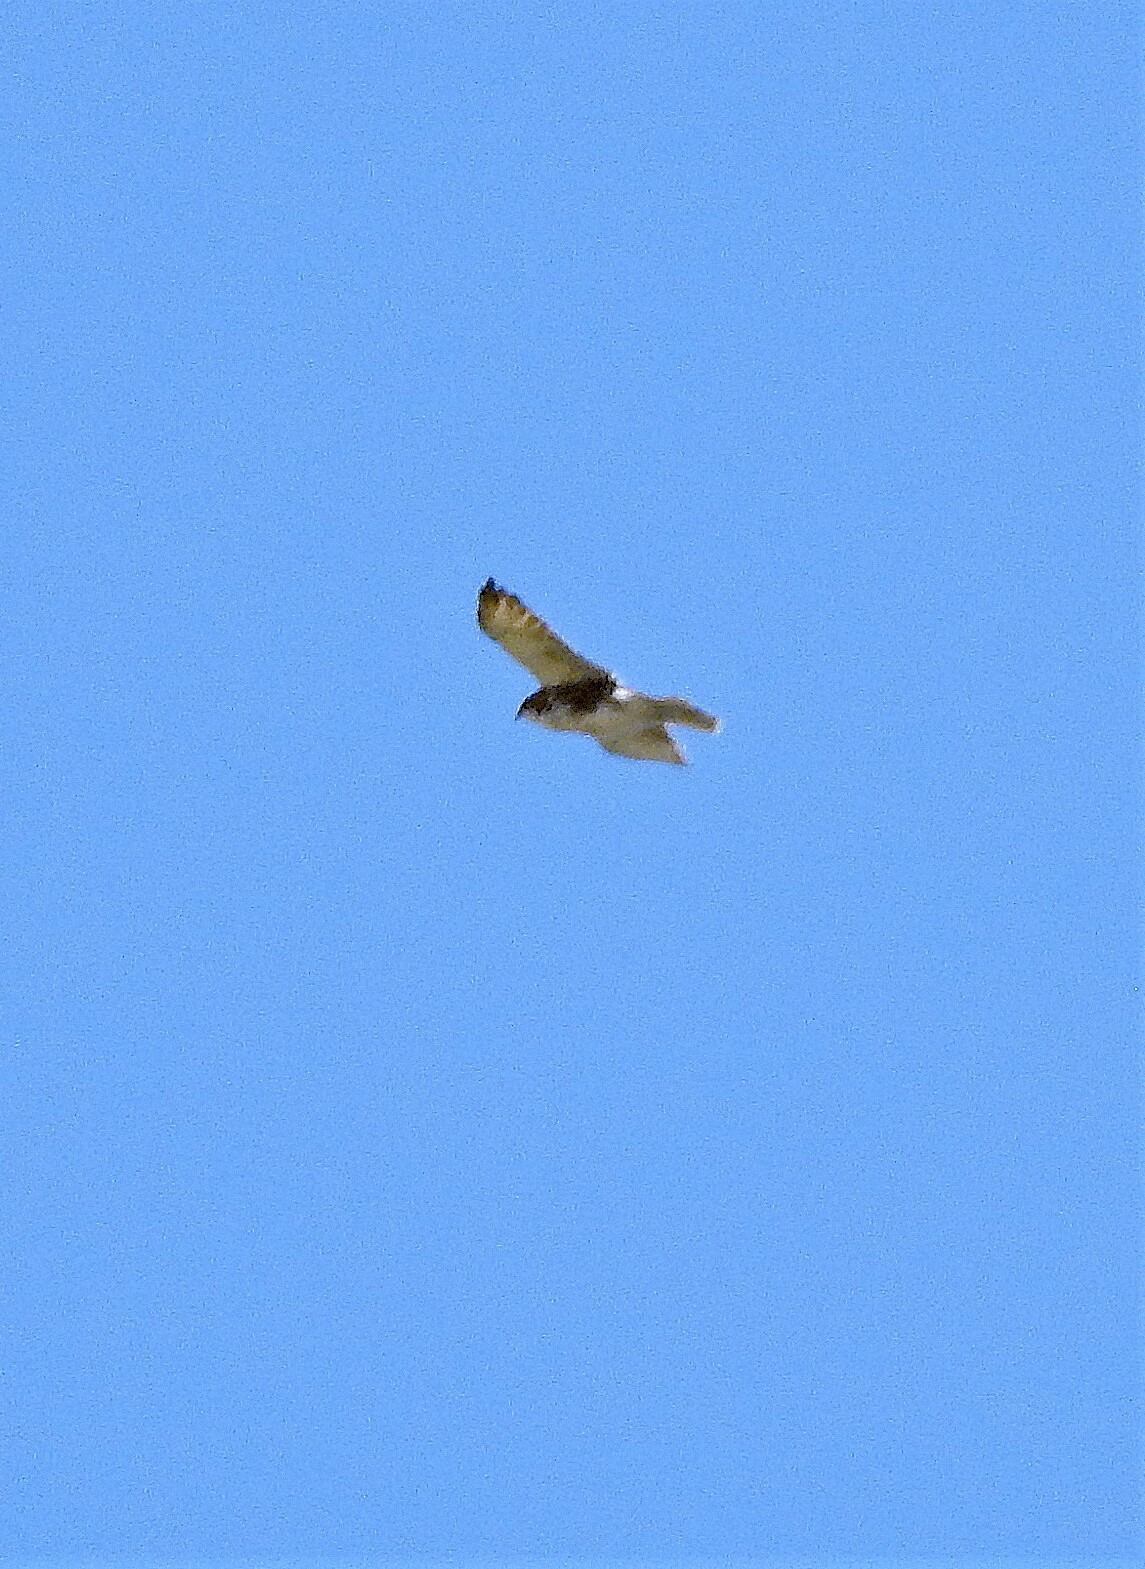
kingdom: Animalia
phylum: Chordata
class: Aves
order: Accipitriformes
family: Accipitridae
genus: Buteo
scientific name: Buteo albigula
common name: White-throated hawk
